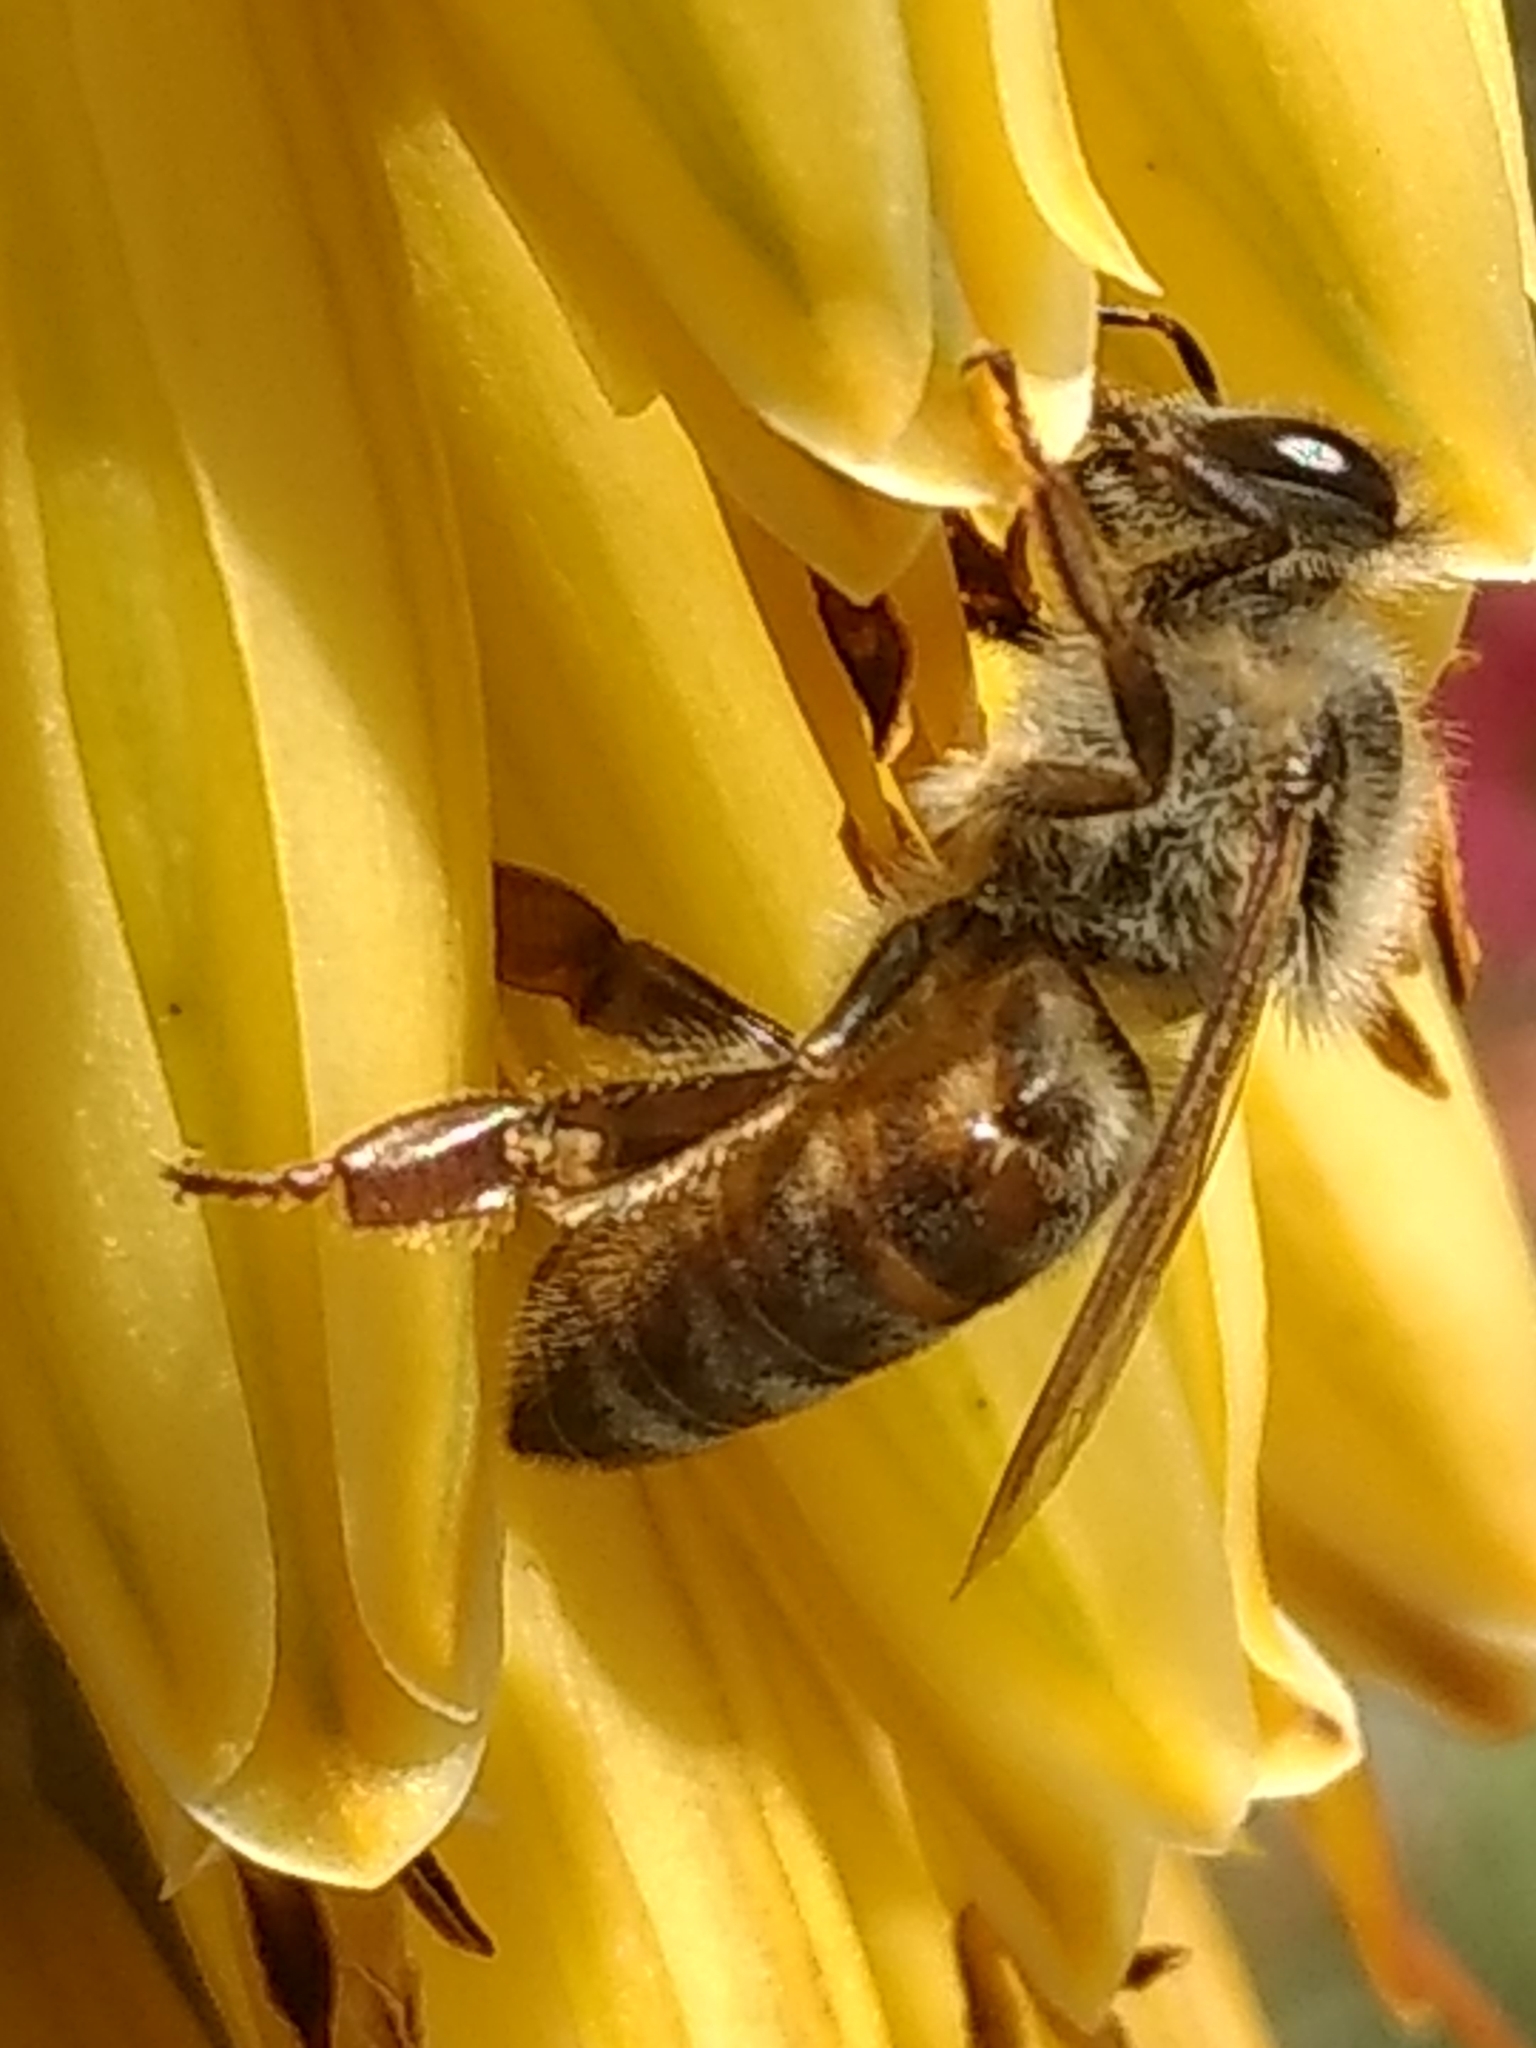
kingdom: Animalia
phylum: Arthropoda
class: Insecta
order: Hymenoptera
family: Apidae
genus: Apis
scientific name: Apis mellifera
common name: Honey bee
